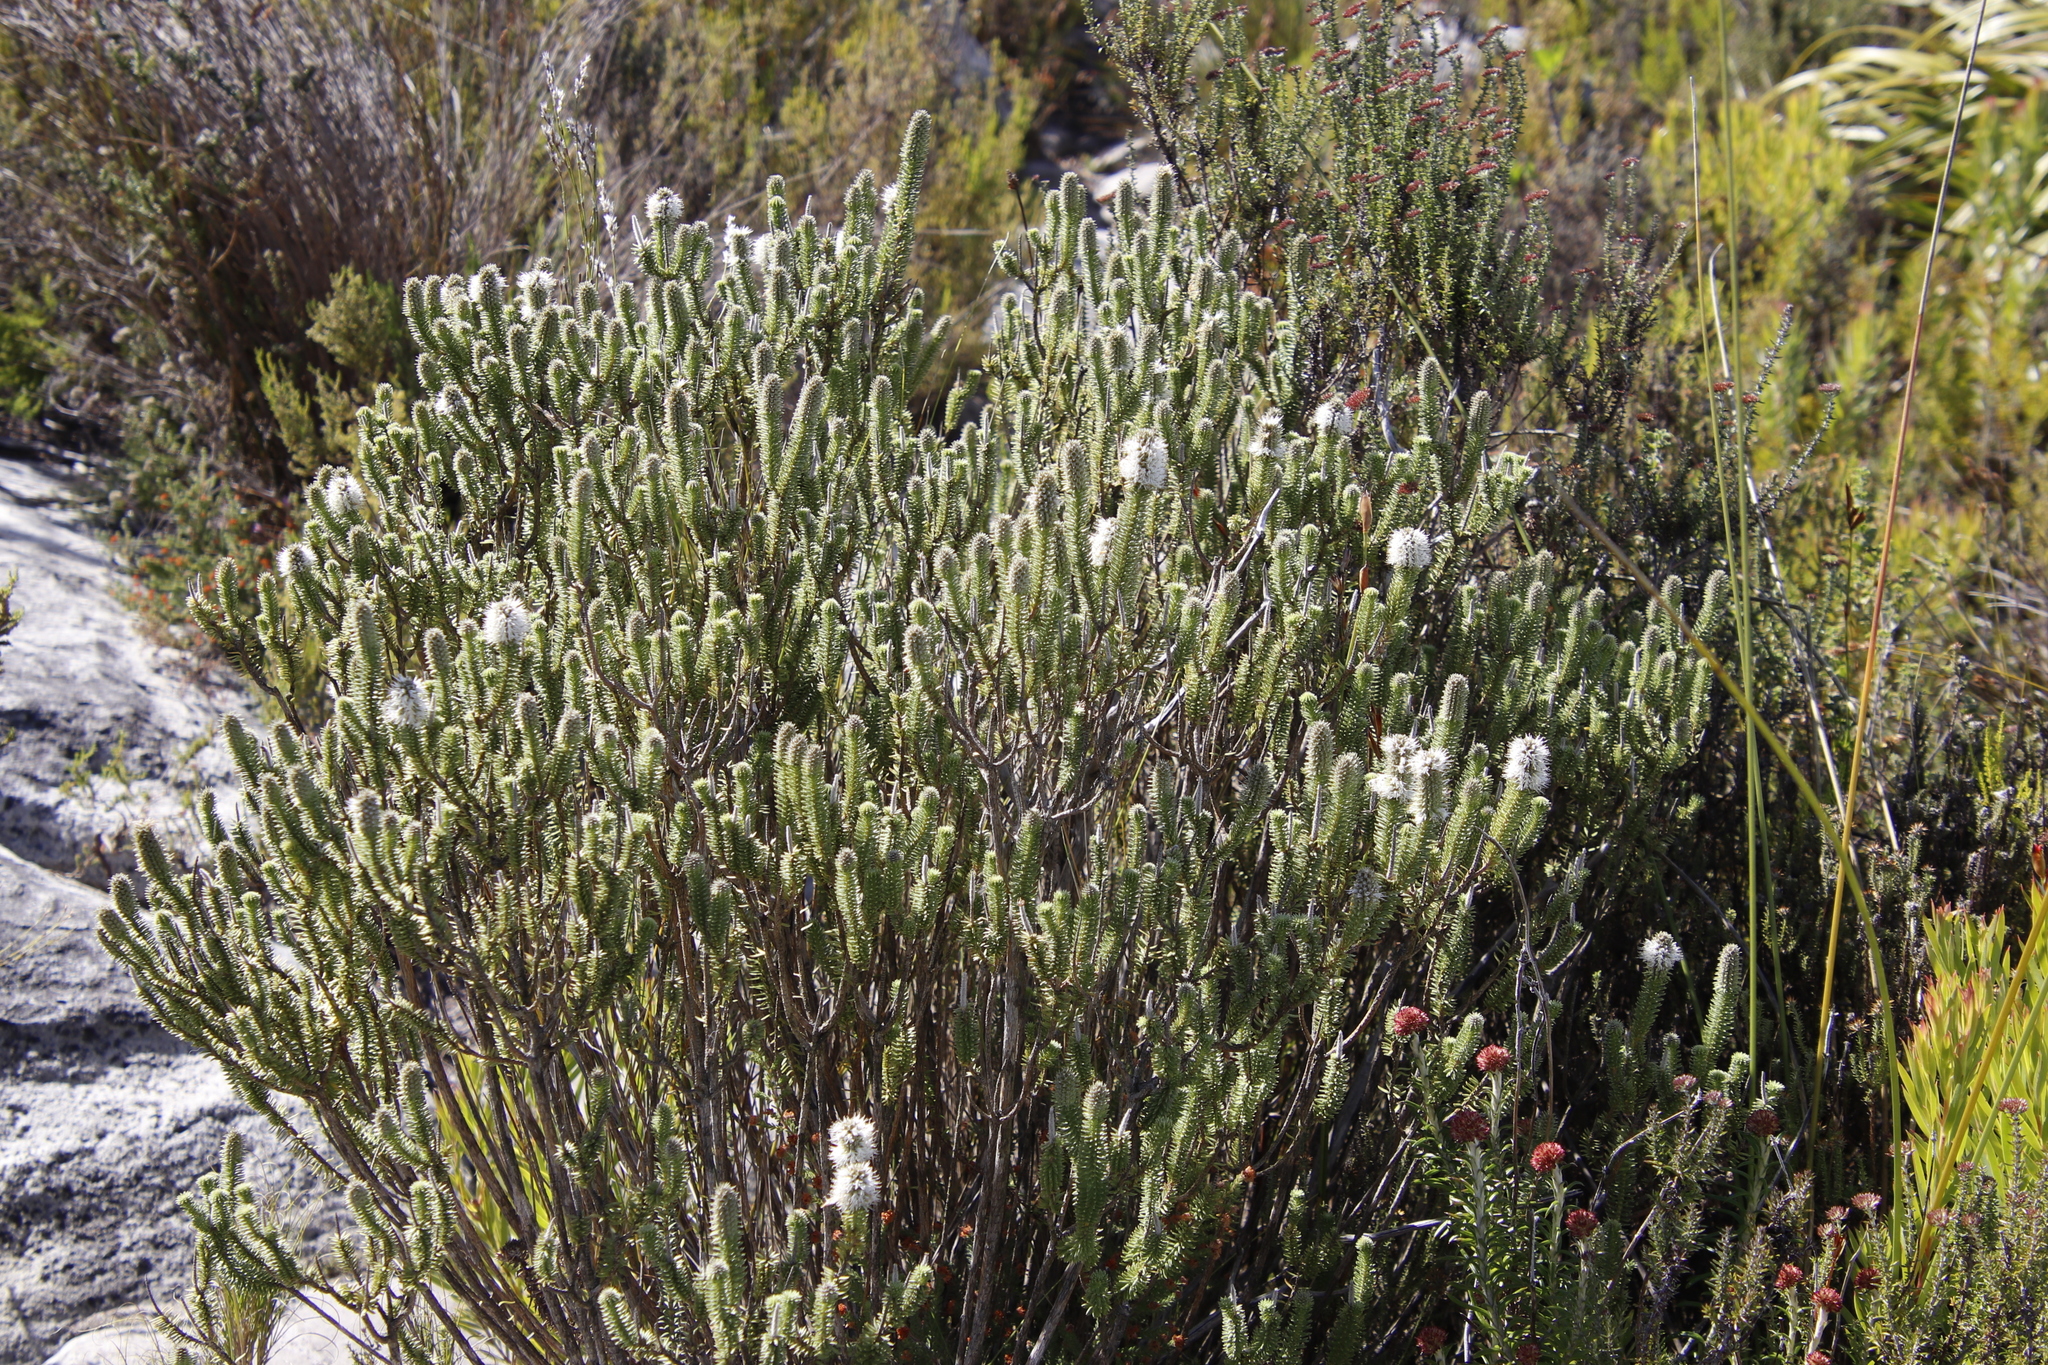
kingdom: Plantae
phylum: Tracheophyta
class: Magnoliopsida
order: Lamiales
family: Stilbaceae
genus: Stilbe
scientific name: Stilbe vestita
